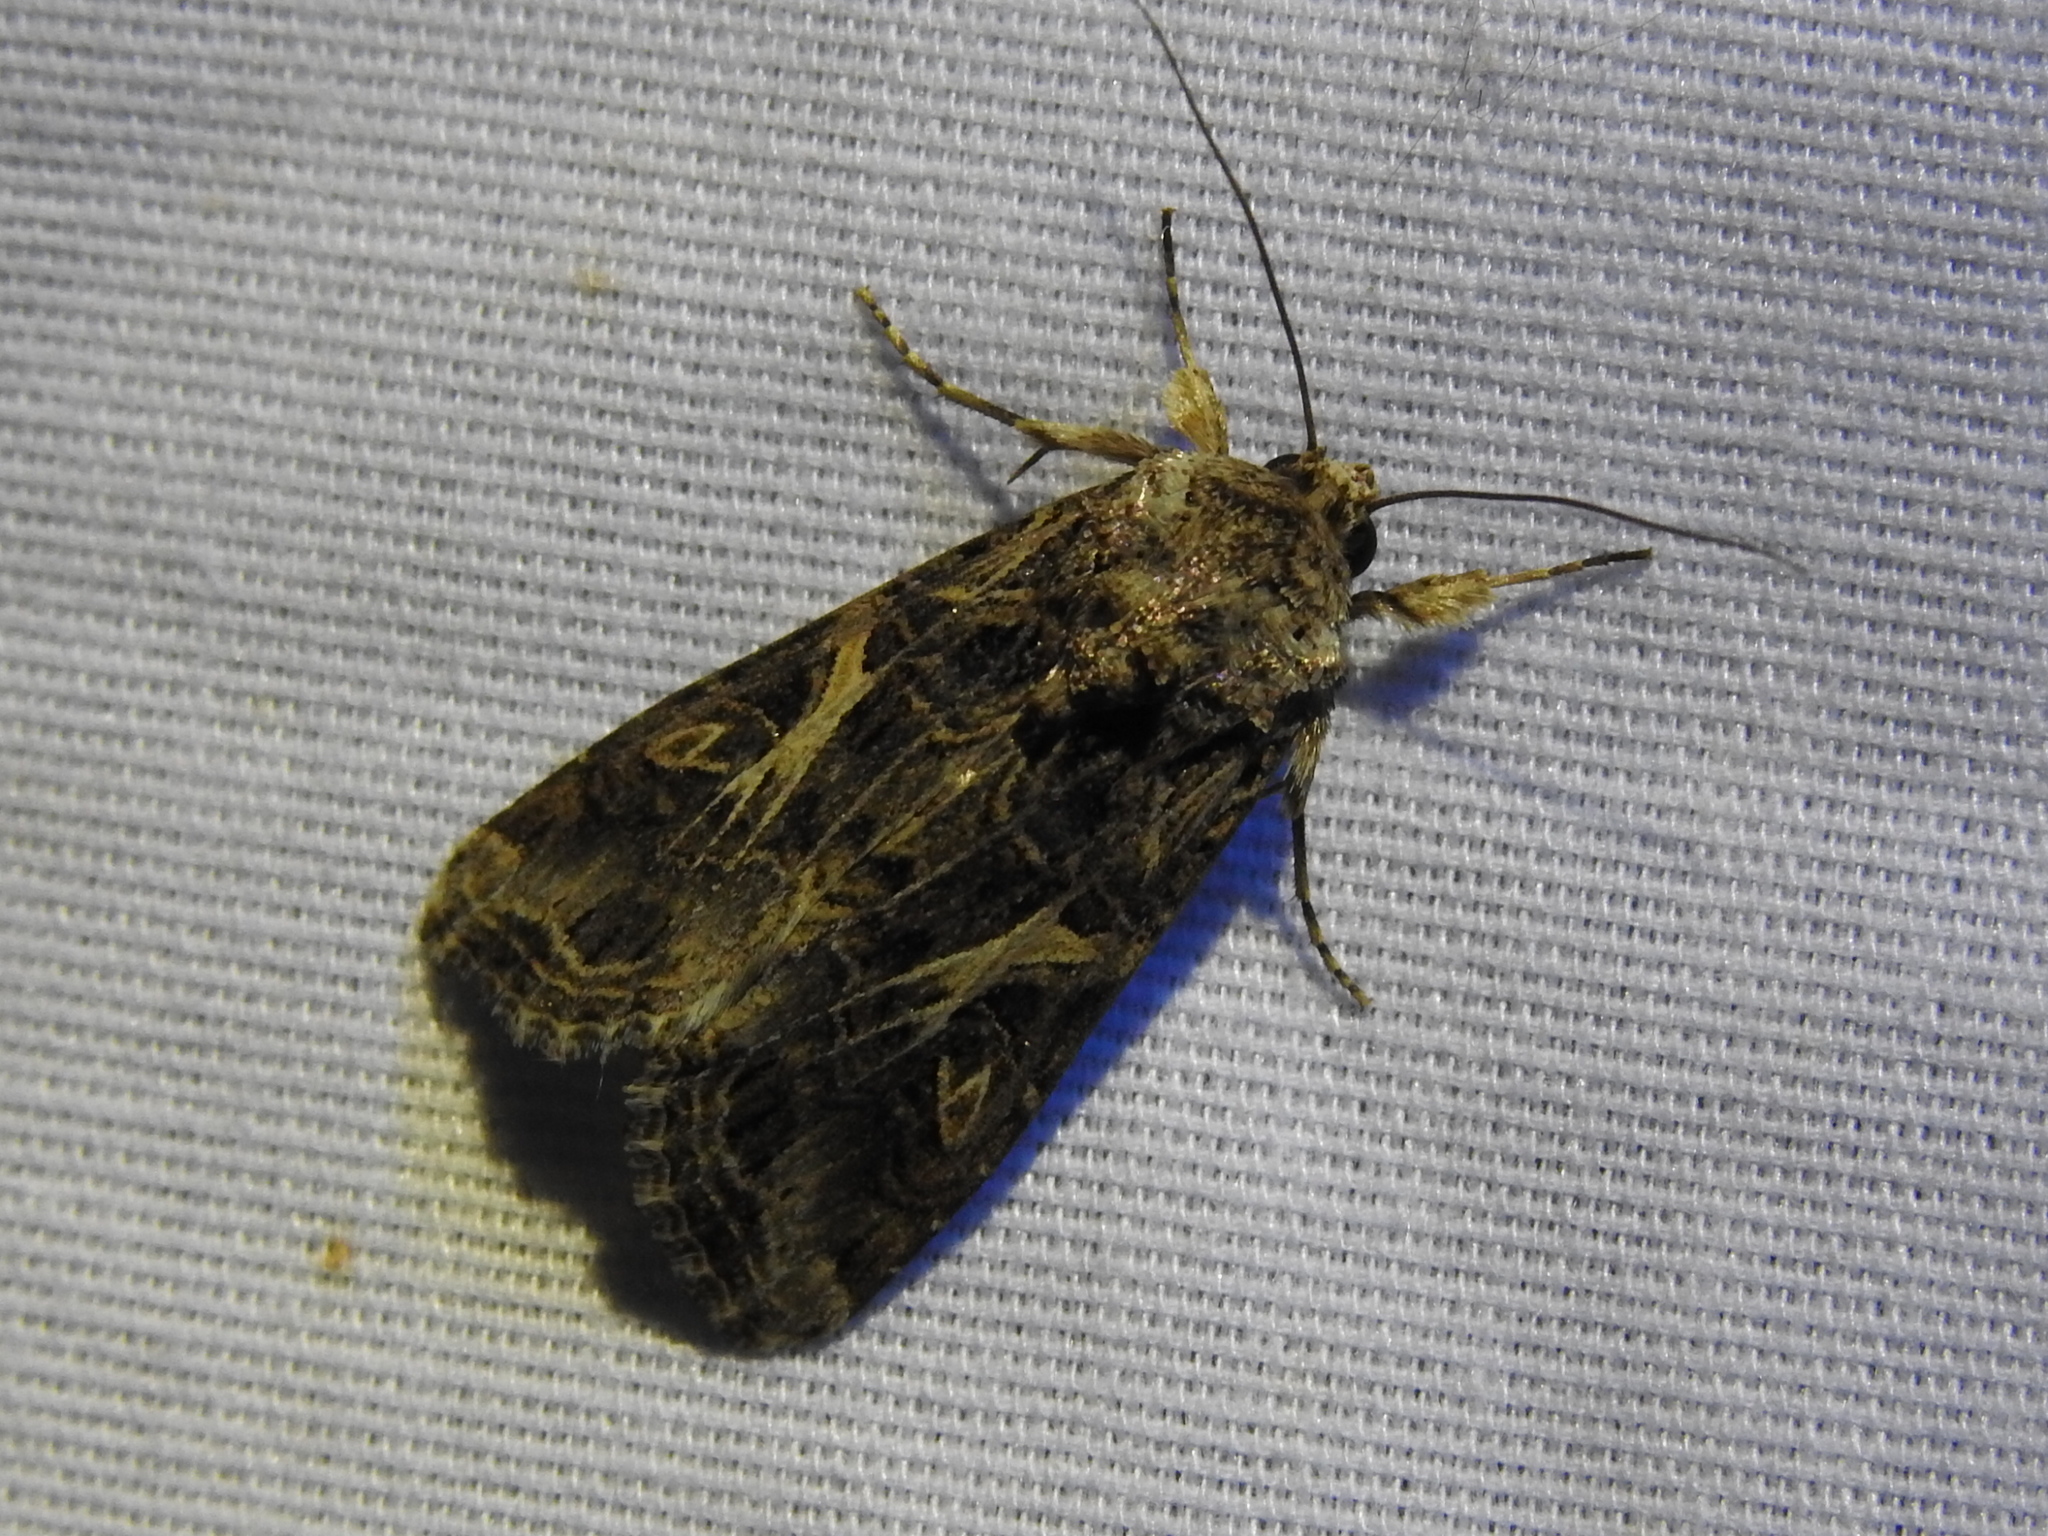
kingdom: Animalia
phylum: Arthropoda
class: Insecta
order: Lepidoptera
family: Noctuidae
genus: Spodoptera
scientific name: Spodoptera ornithogalli
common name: Yellow-striped armyworm
